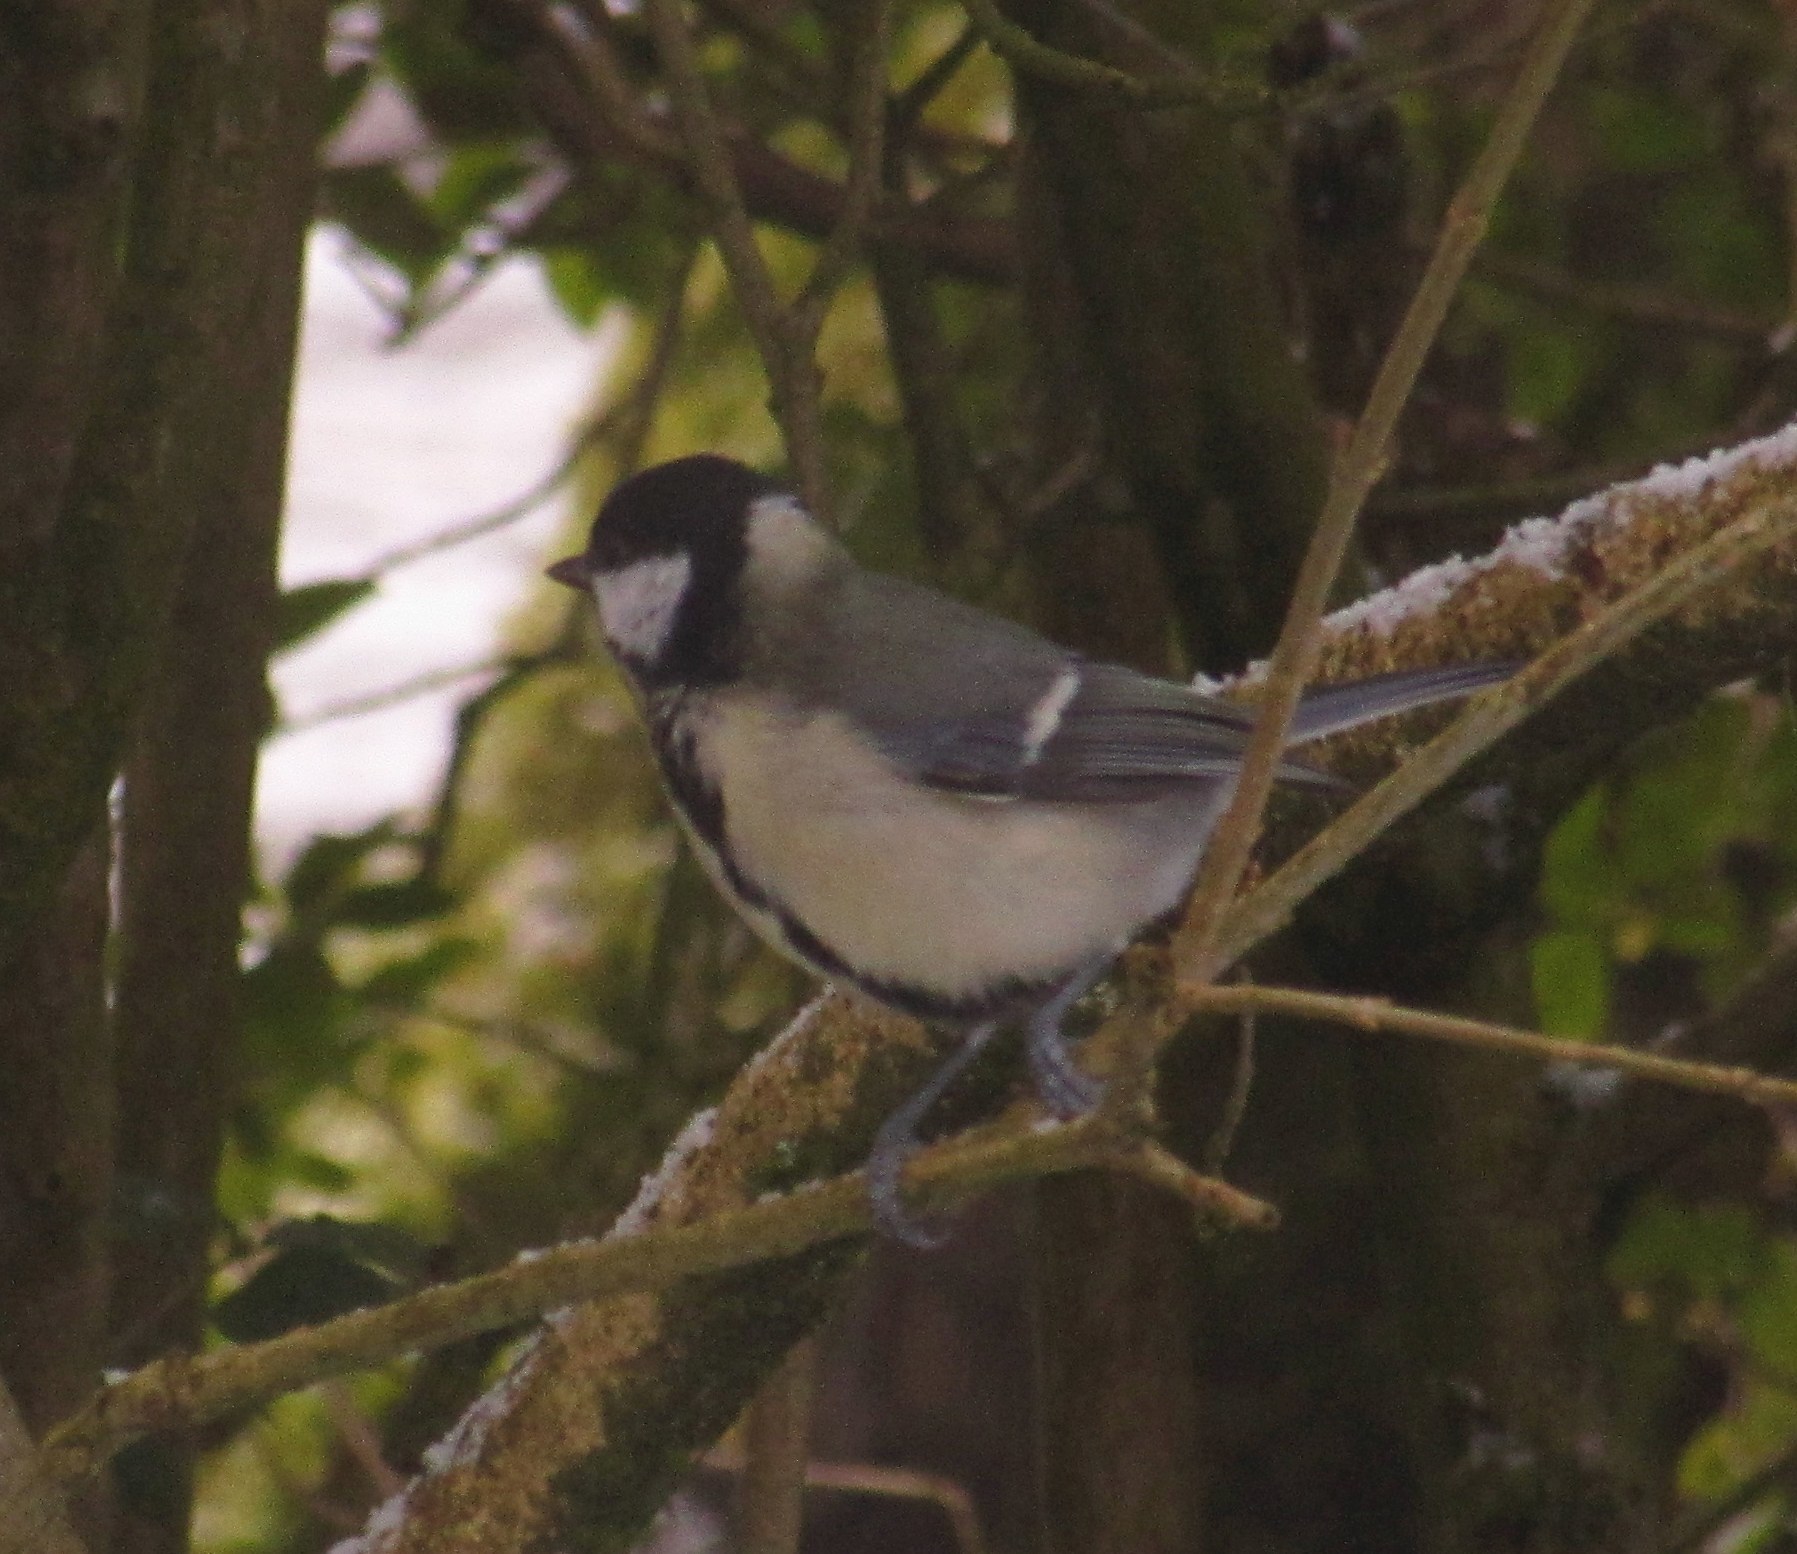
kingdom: Animalia
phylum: Chordata
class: Aves
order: Passeriformes
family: Paridae
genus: Parus
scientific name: Parus major
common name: Great tit
